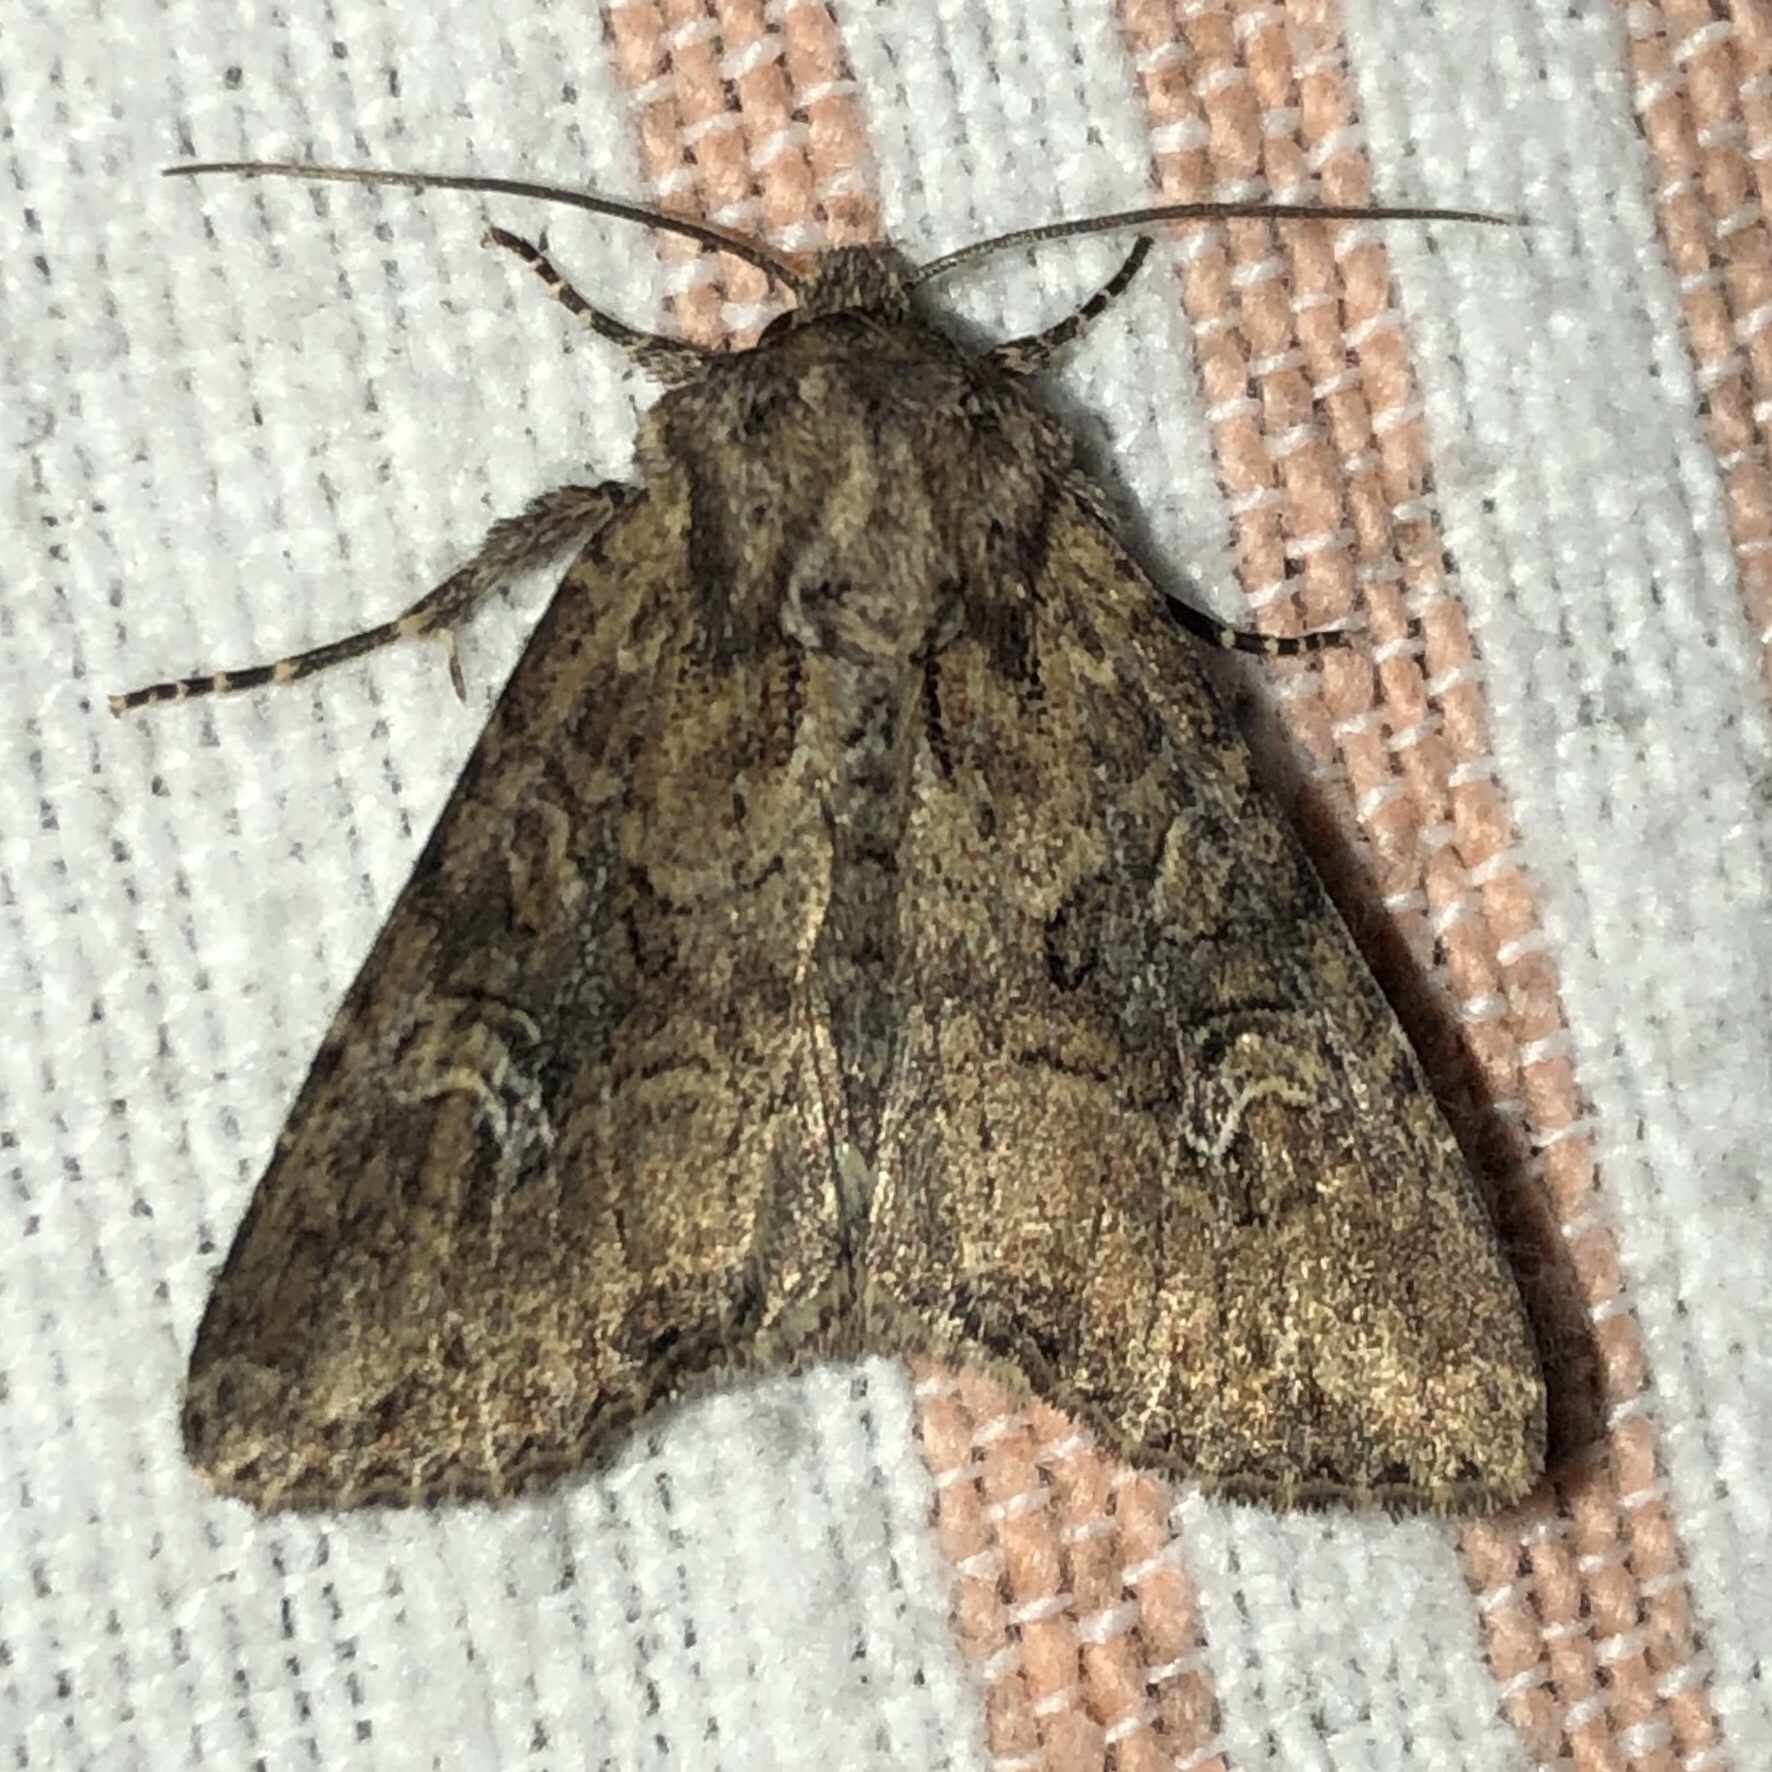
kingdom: Animalia
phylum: Arthropoda
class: Insecta
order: Lepidoptera
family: Noctuidae
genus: Apamea
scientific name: Apamea unanimis
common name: Small clouded brindle
